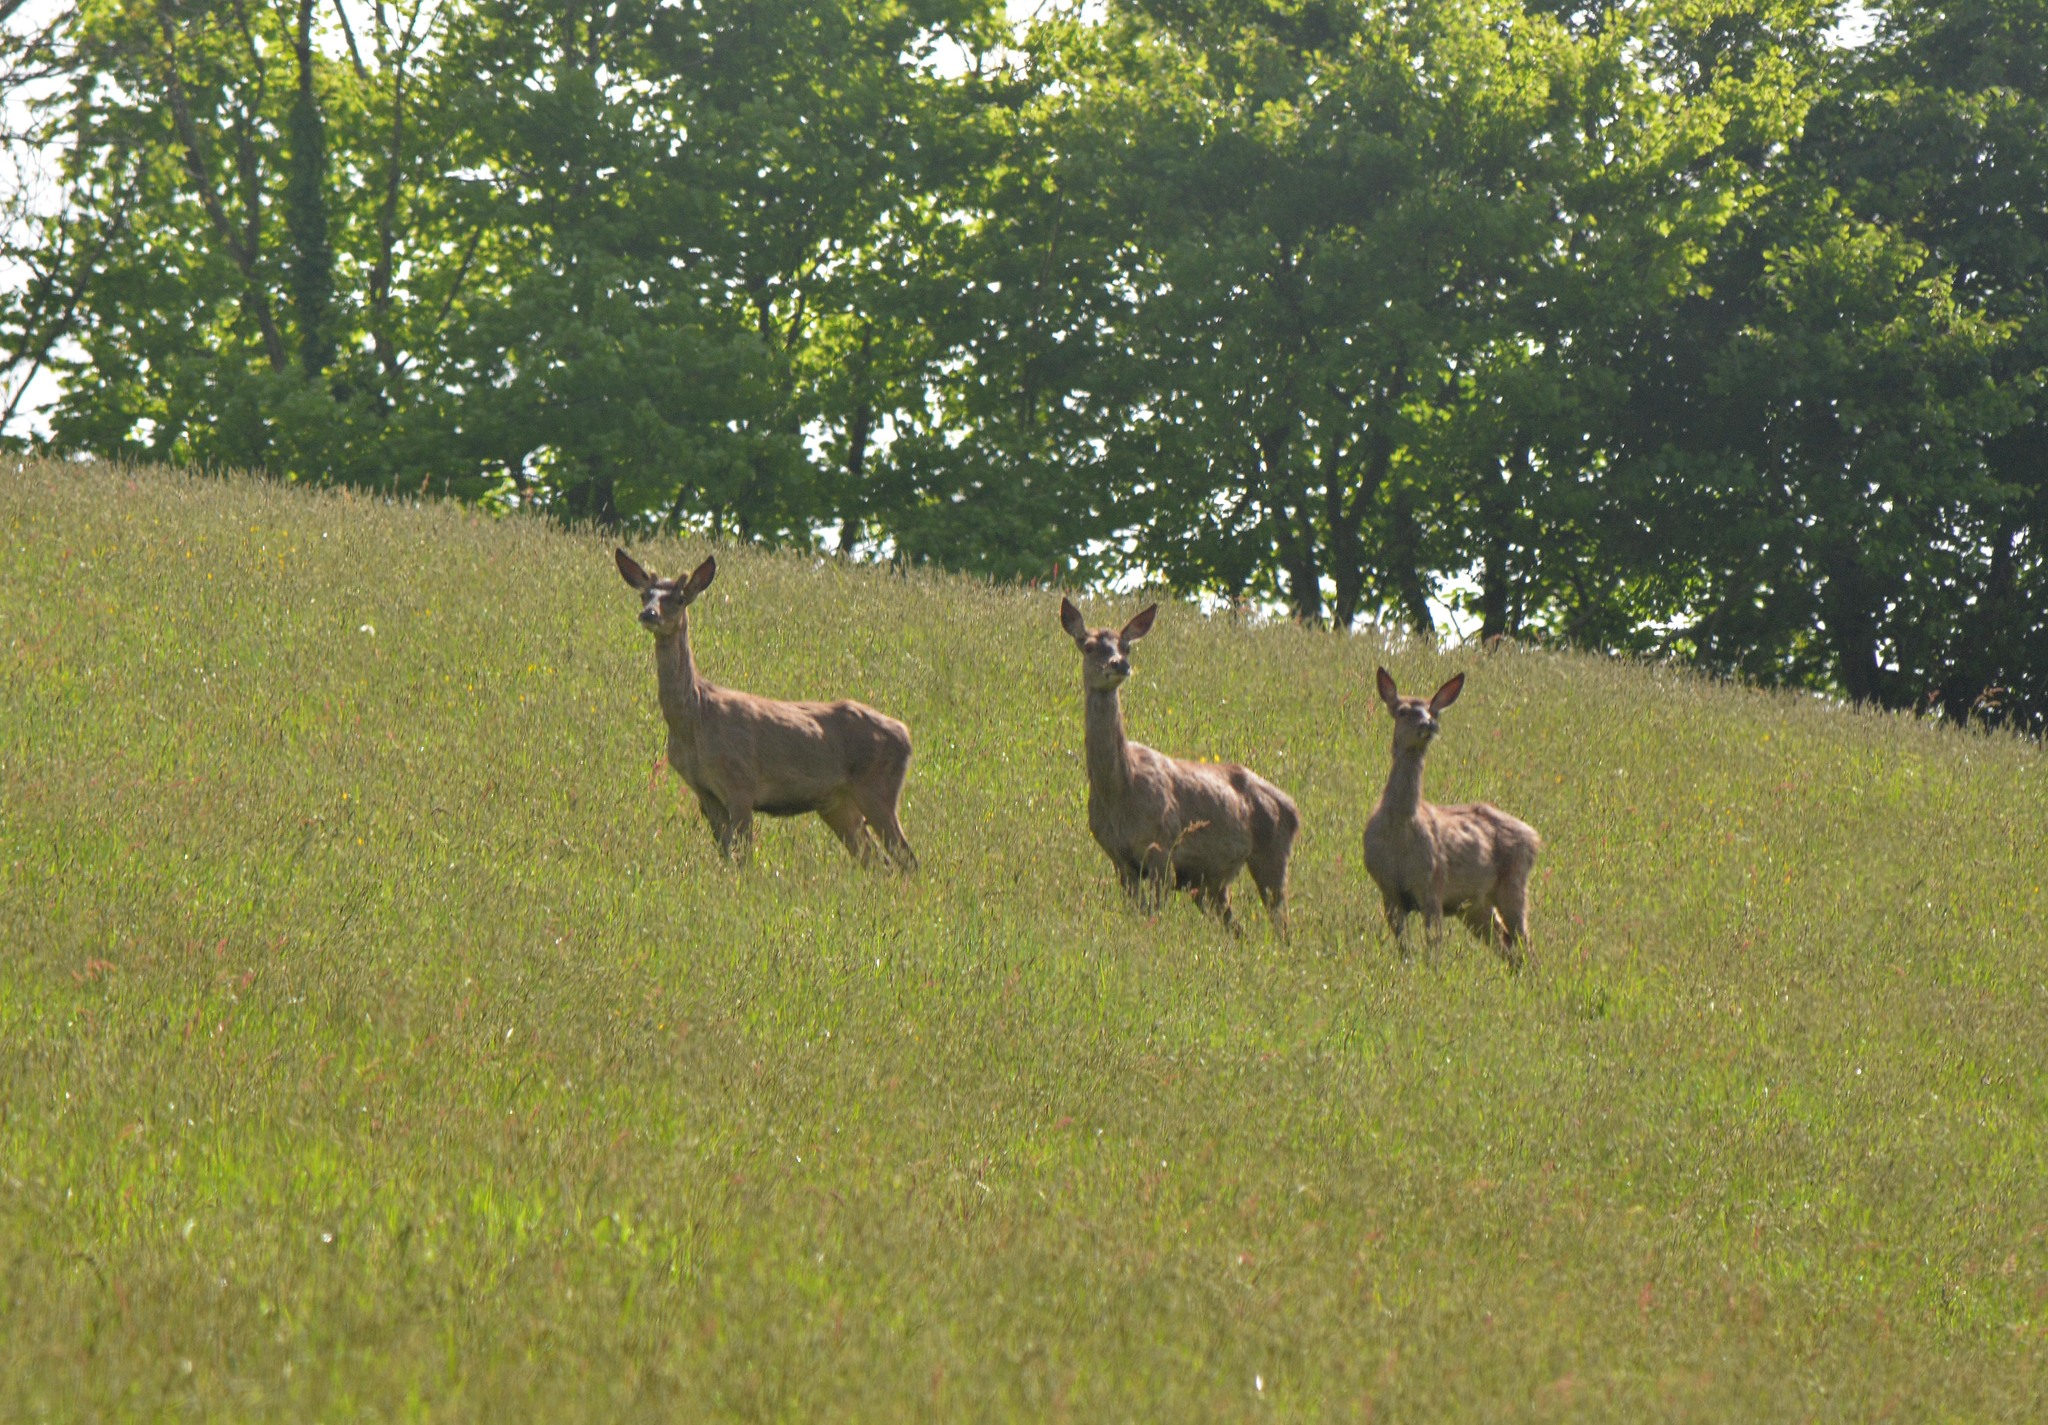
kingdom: Animalia
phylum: Chordata
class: Mammalia
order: Artiodactyla
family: Cervidae
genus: Cervus
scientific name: Cervus elaphus
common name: Red deer
